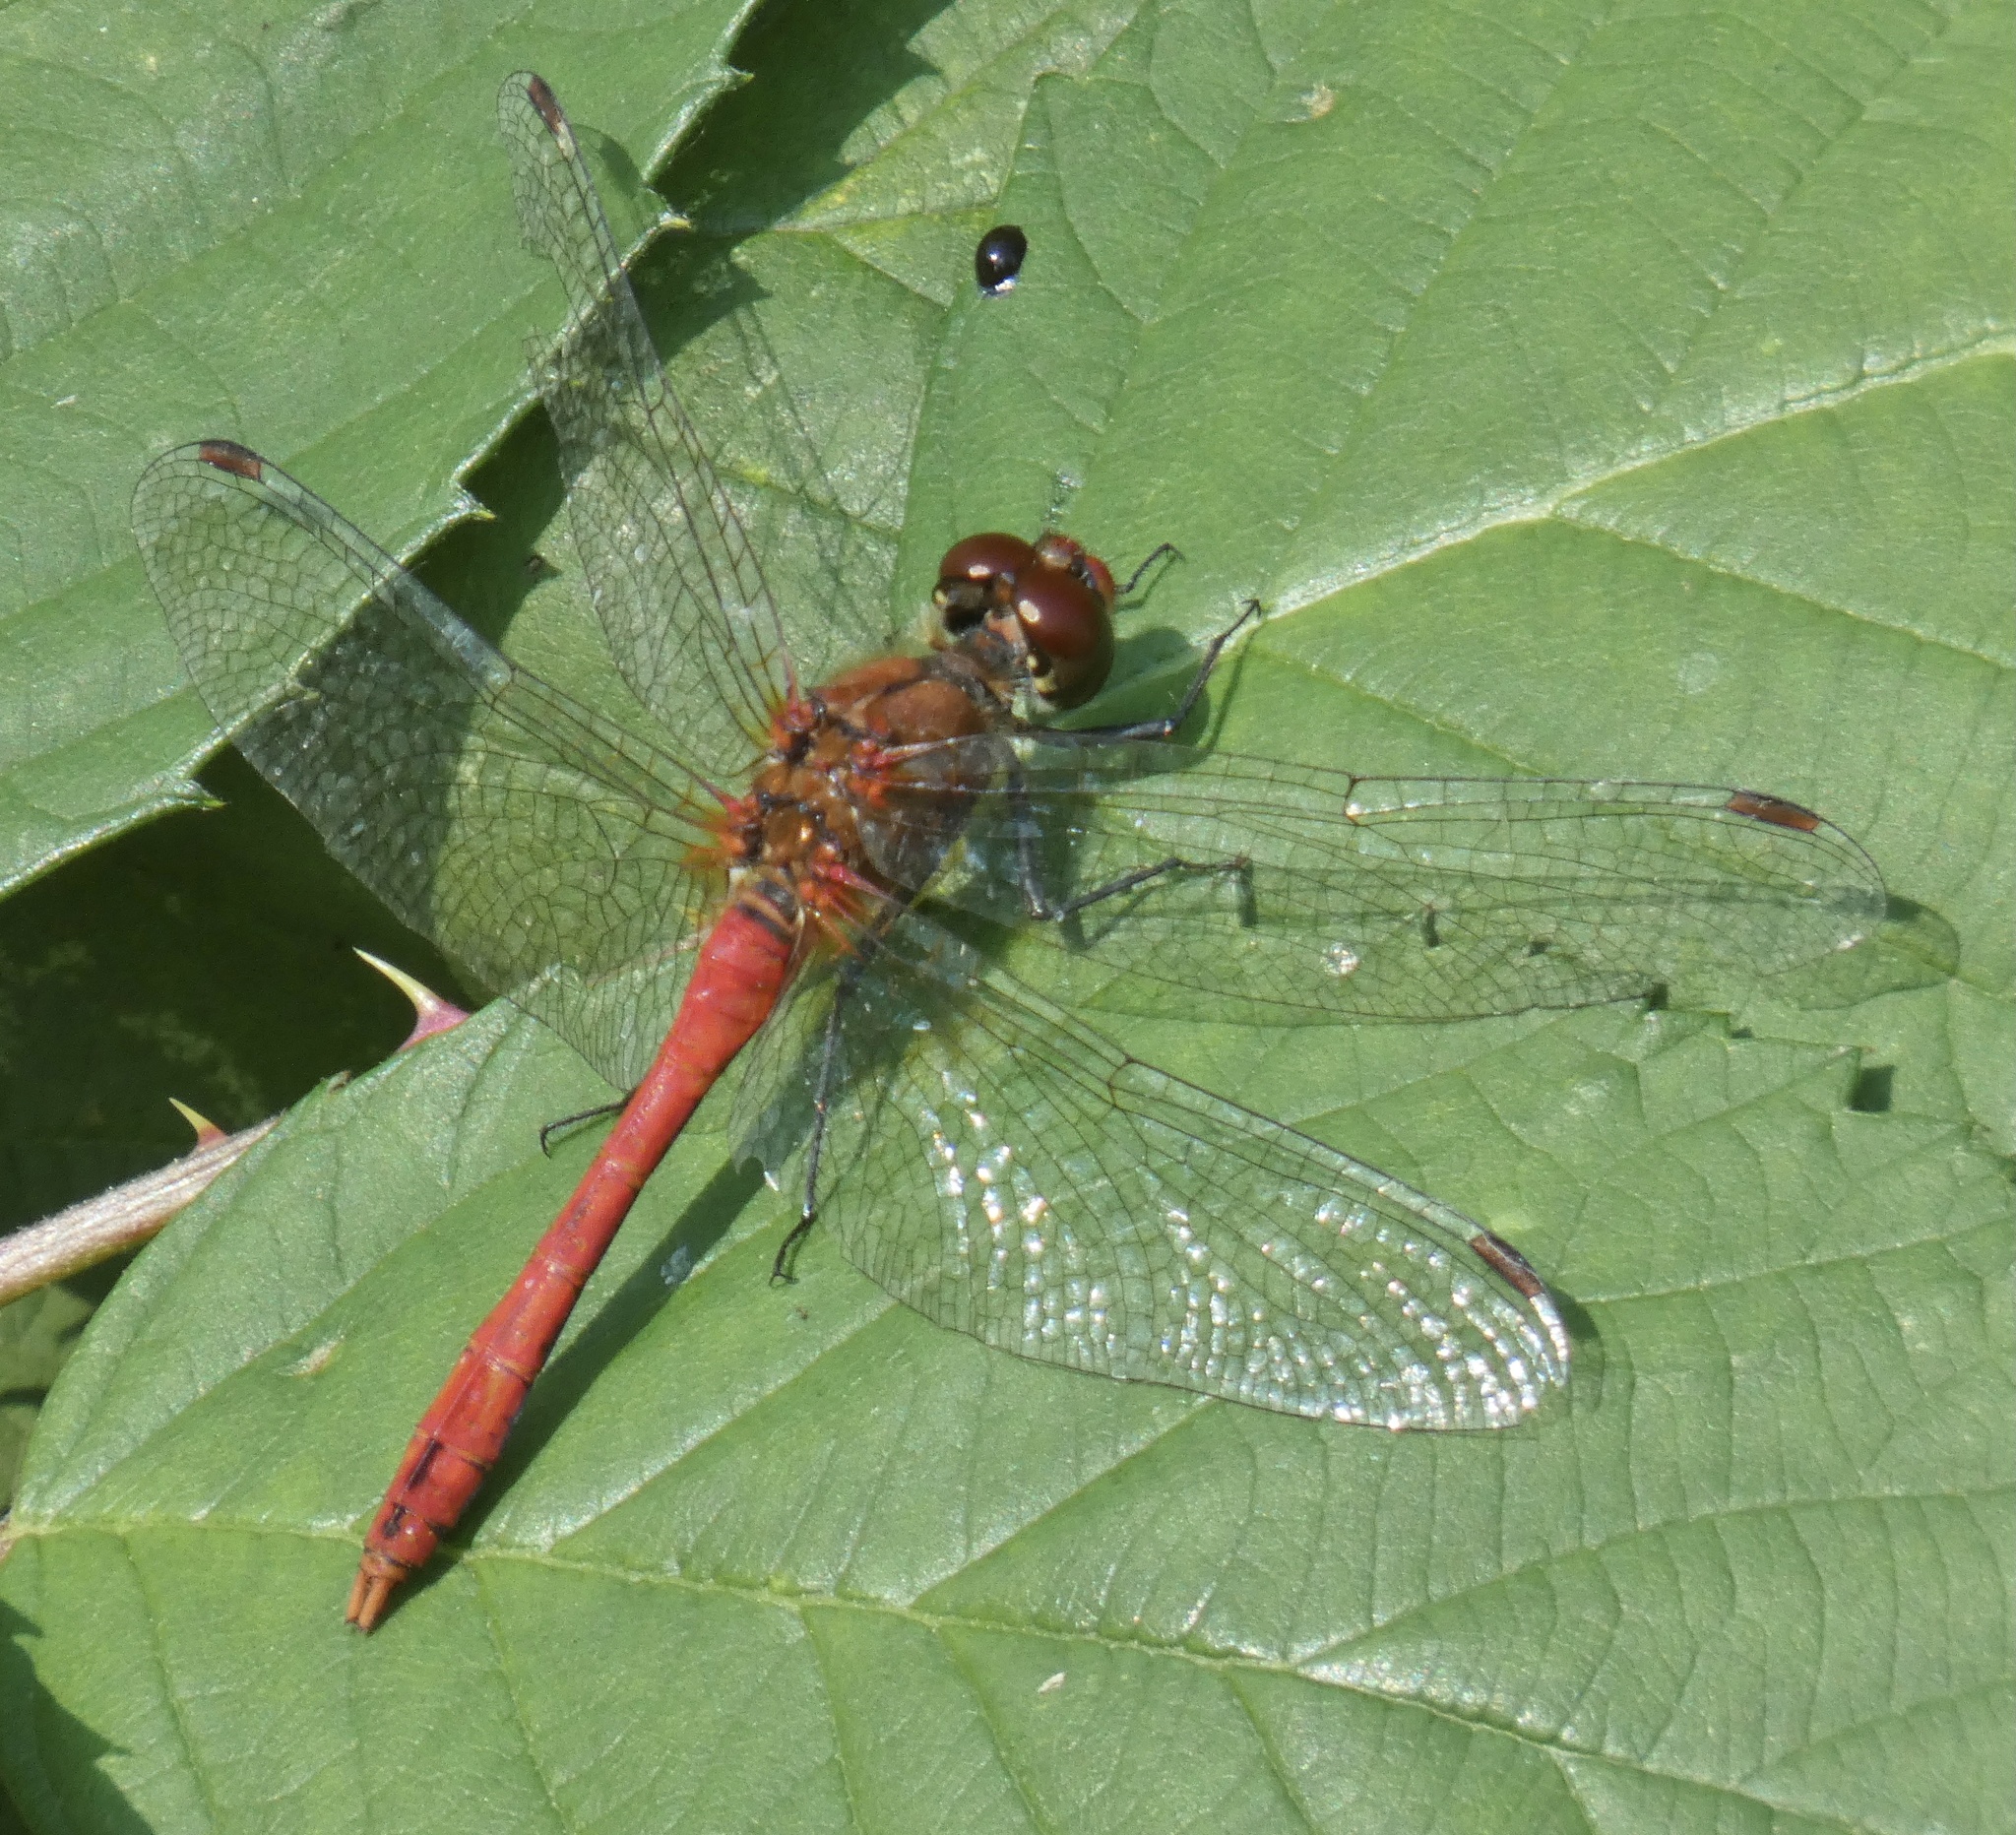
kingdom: Animalia
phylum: Arthropoda
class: Insecta
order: Odonata
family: Libellulidae
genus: Sympetrum
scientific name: Sympetrum sanguineum
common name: Ruddy darter
